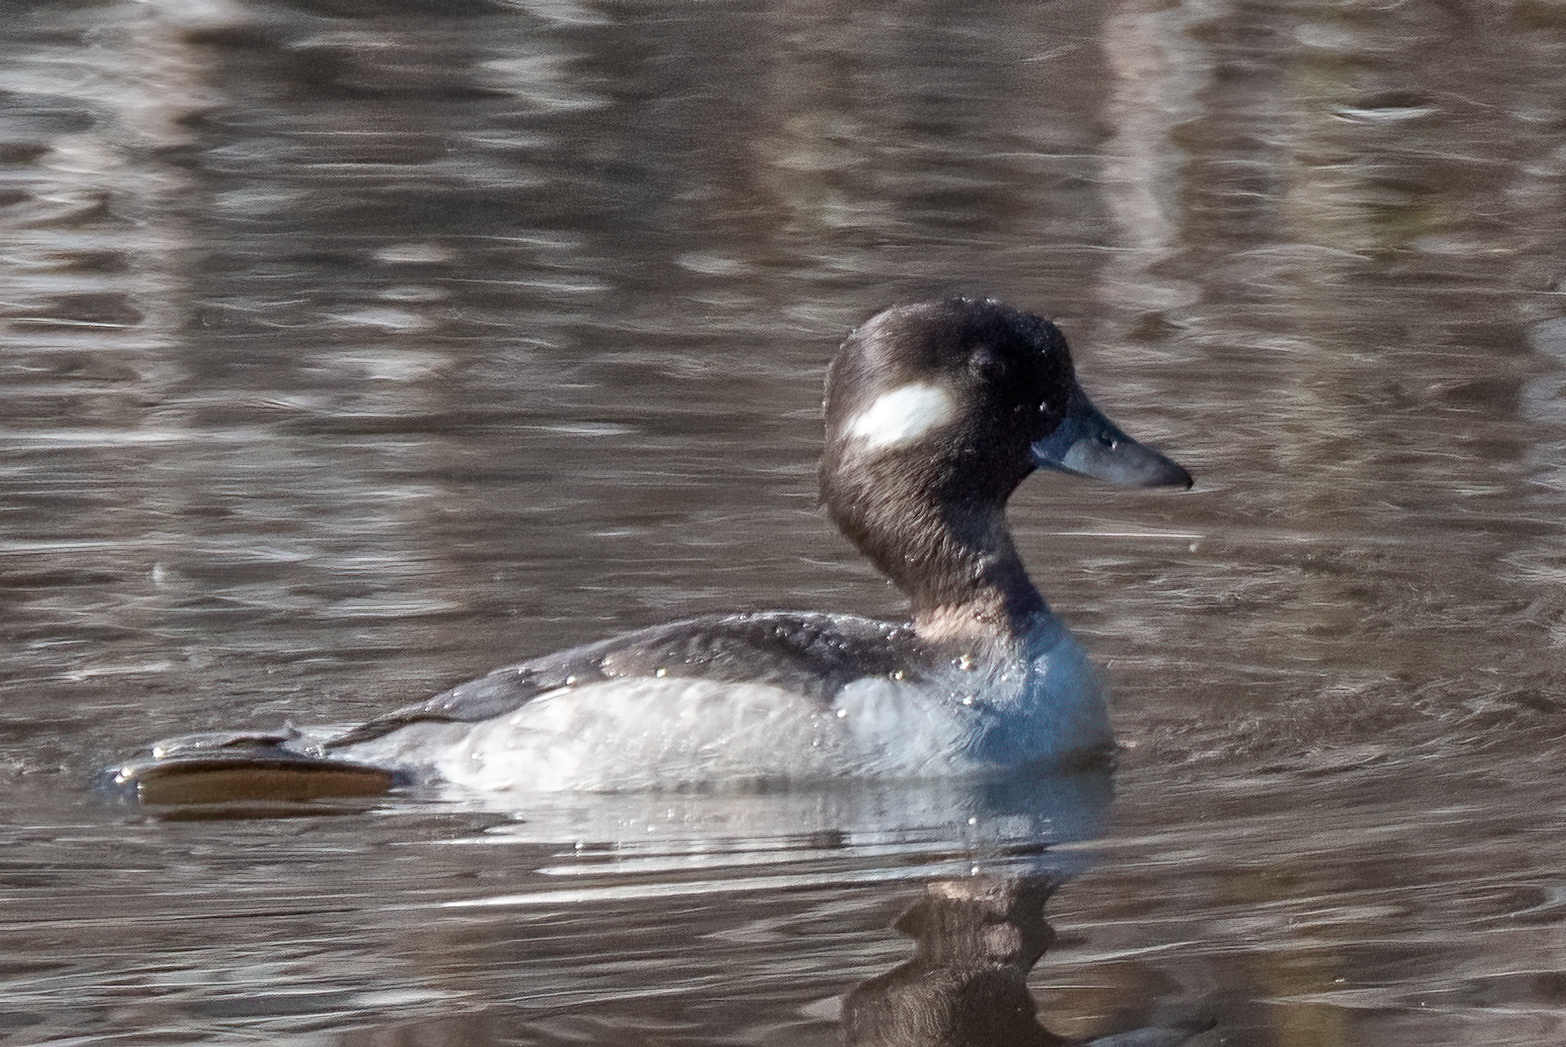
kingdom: Animalia
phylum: Chordata
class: Aves
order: Anseriformes
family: Anatidae
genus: Bucephala
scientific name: Bucephala albeola
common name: Bufflehead
